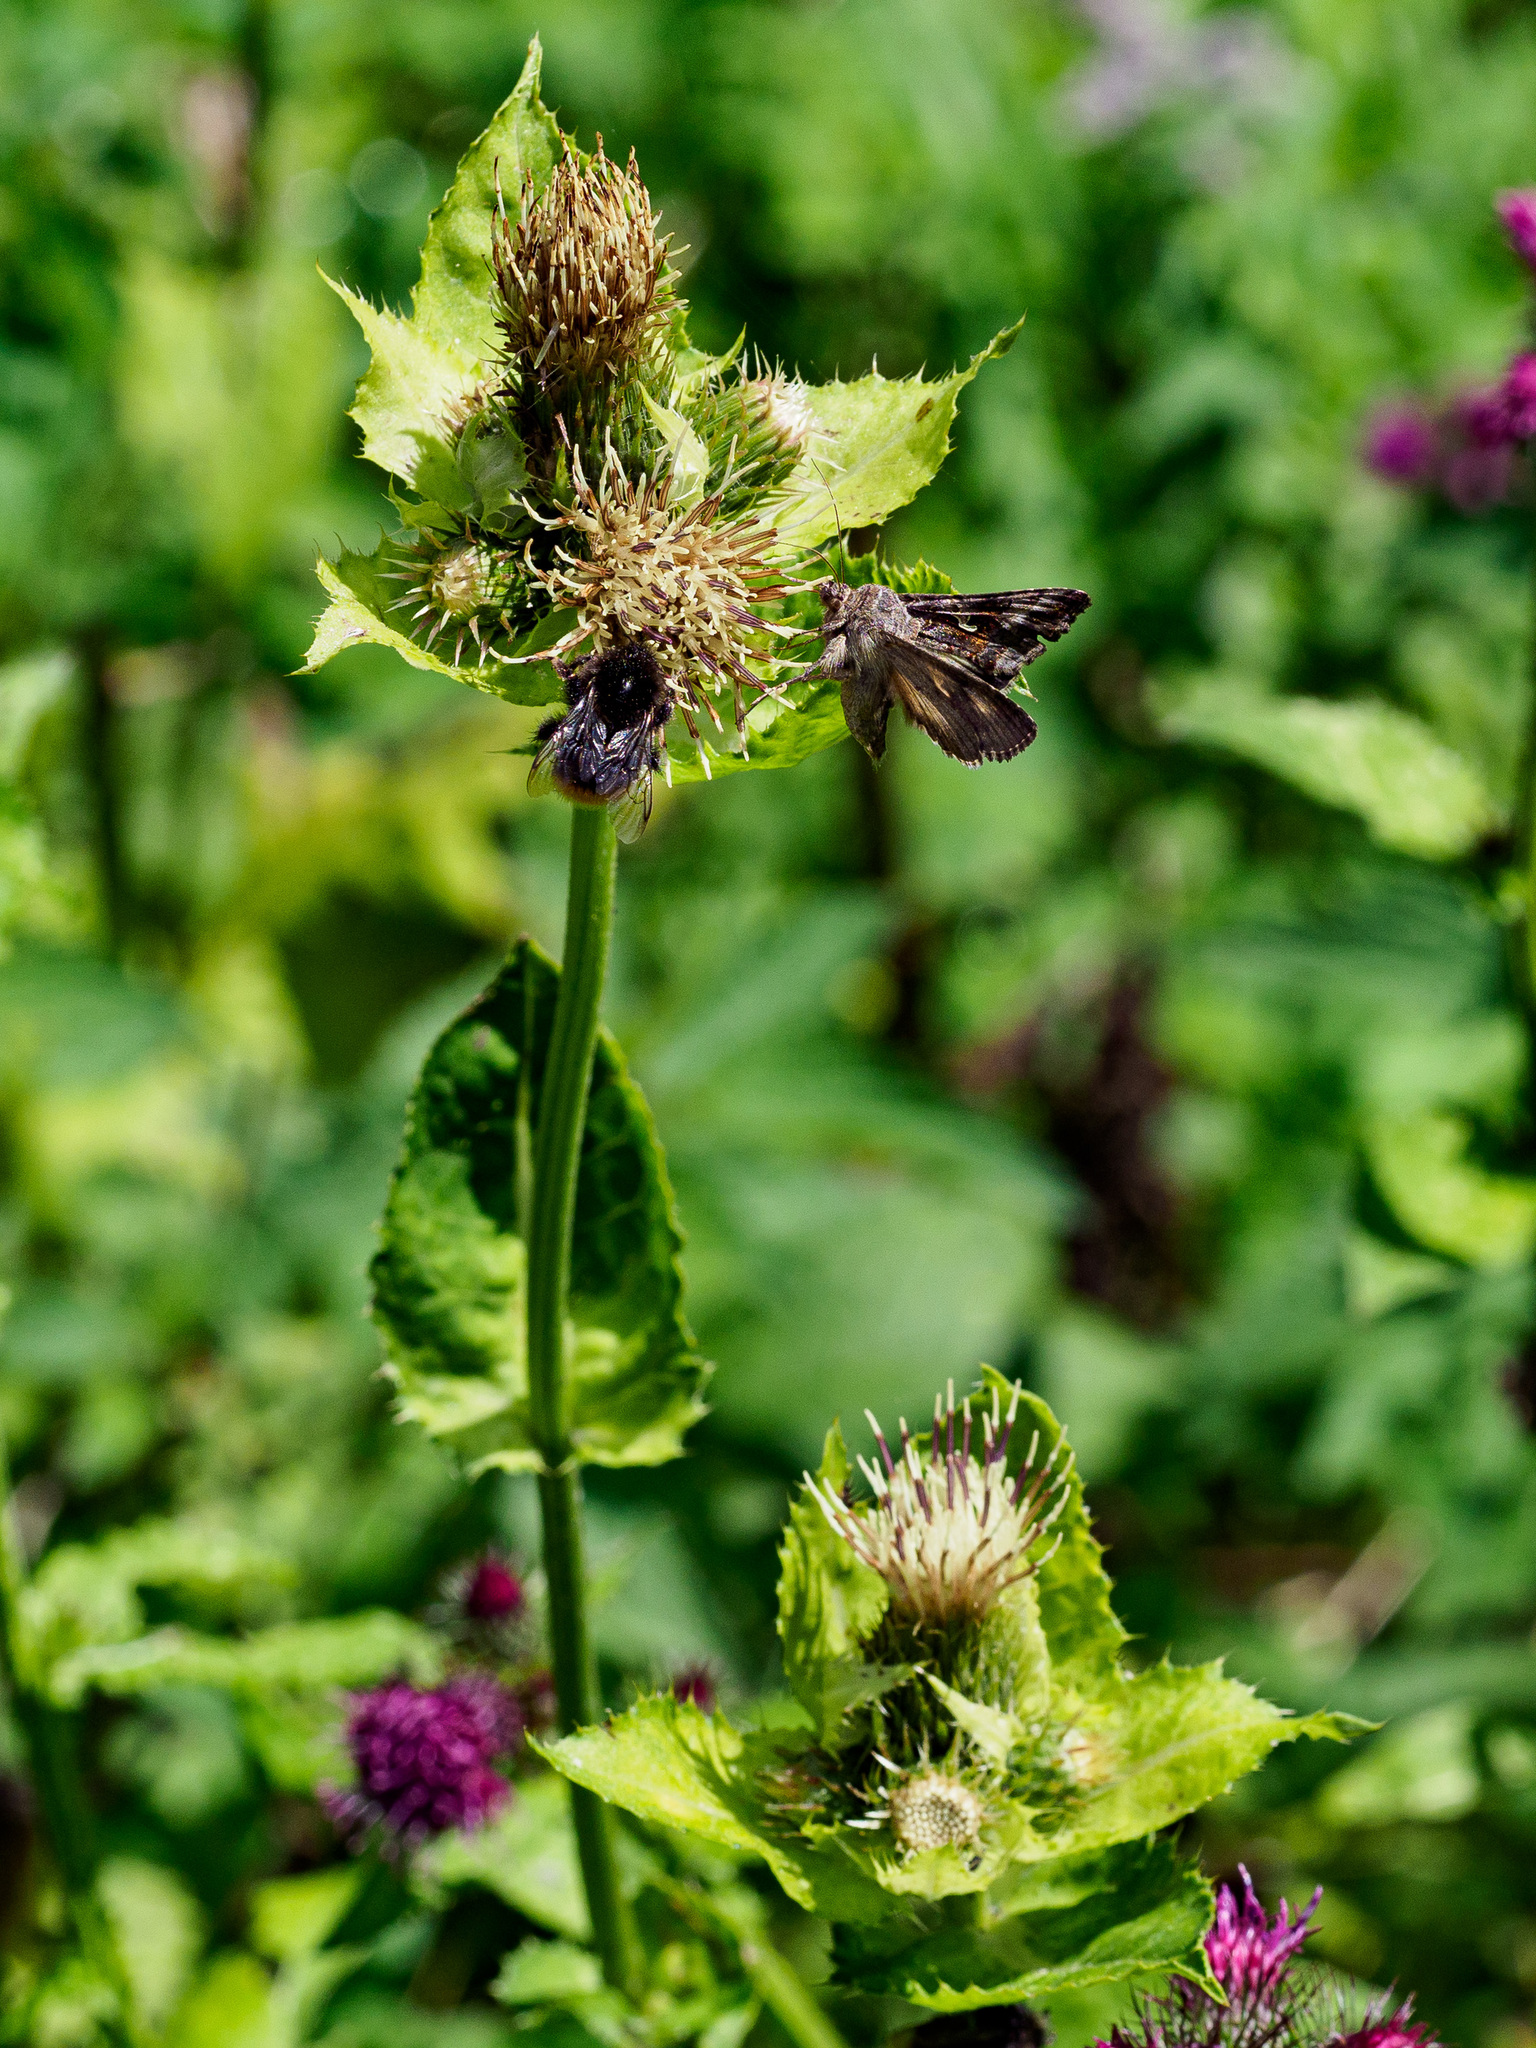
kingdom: Plantae
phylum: Tracheophyta
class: Magnoliopsida
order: Asterales
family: Asteraceae
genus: Cirsium
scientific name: Cirsium oleraceum
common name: Cabbage thistle
